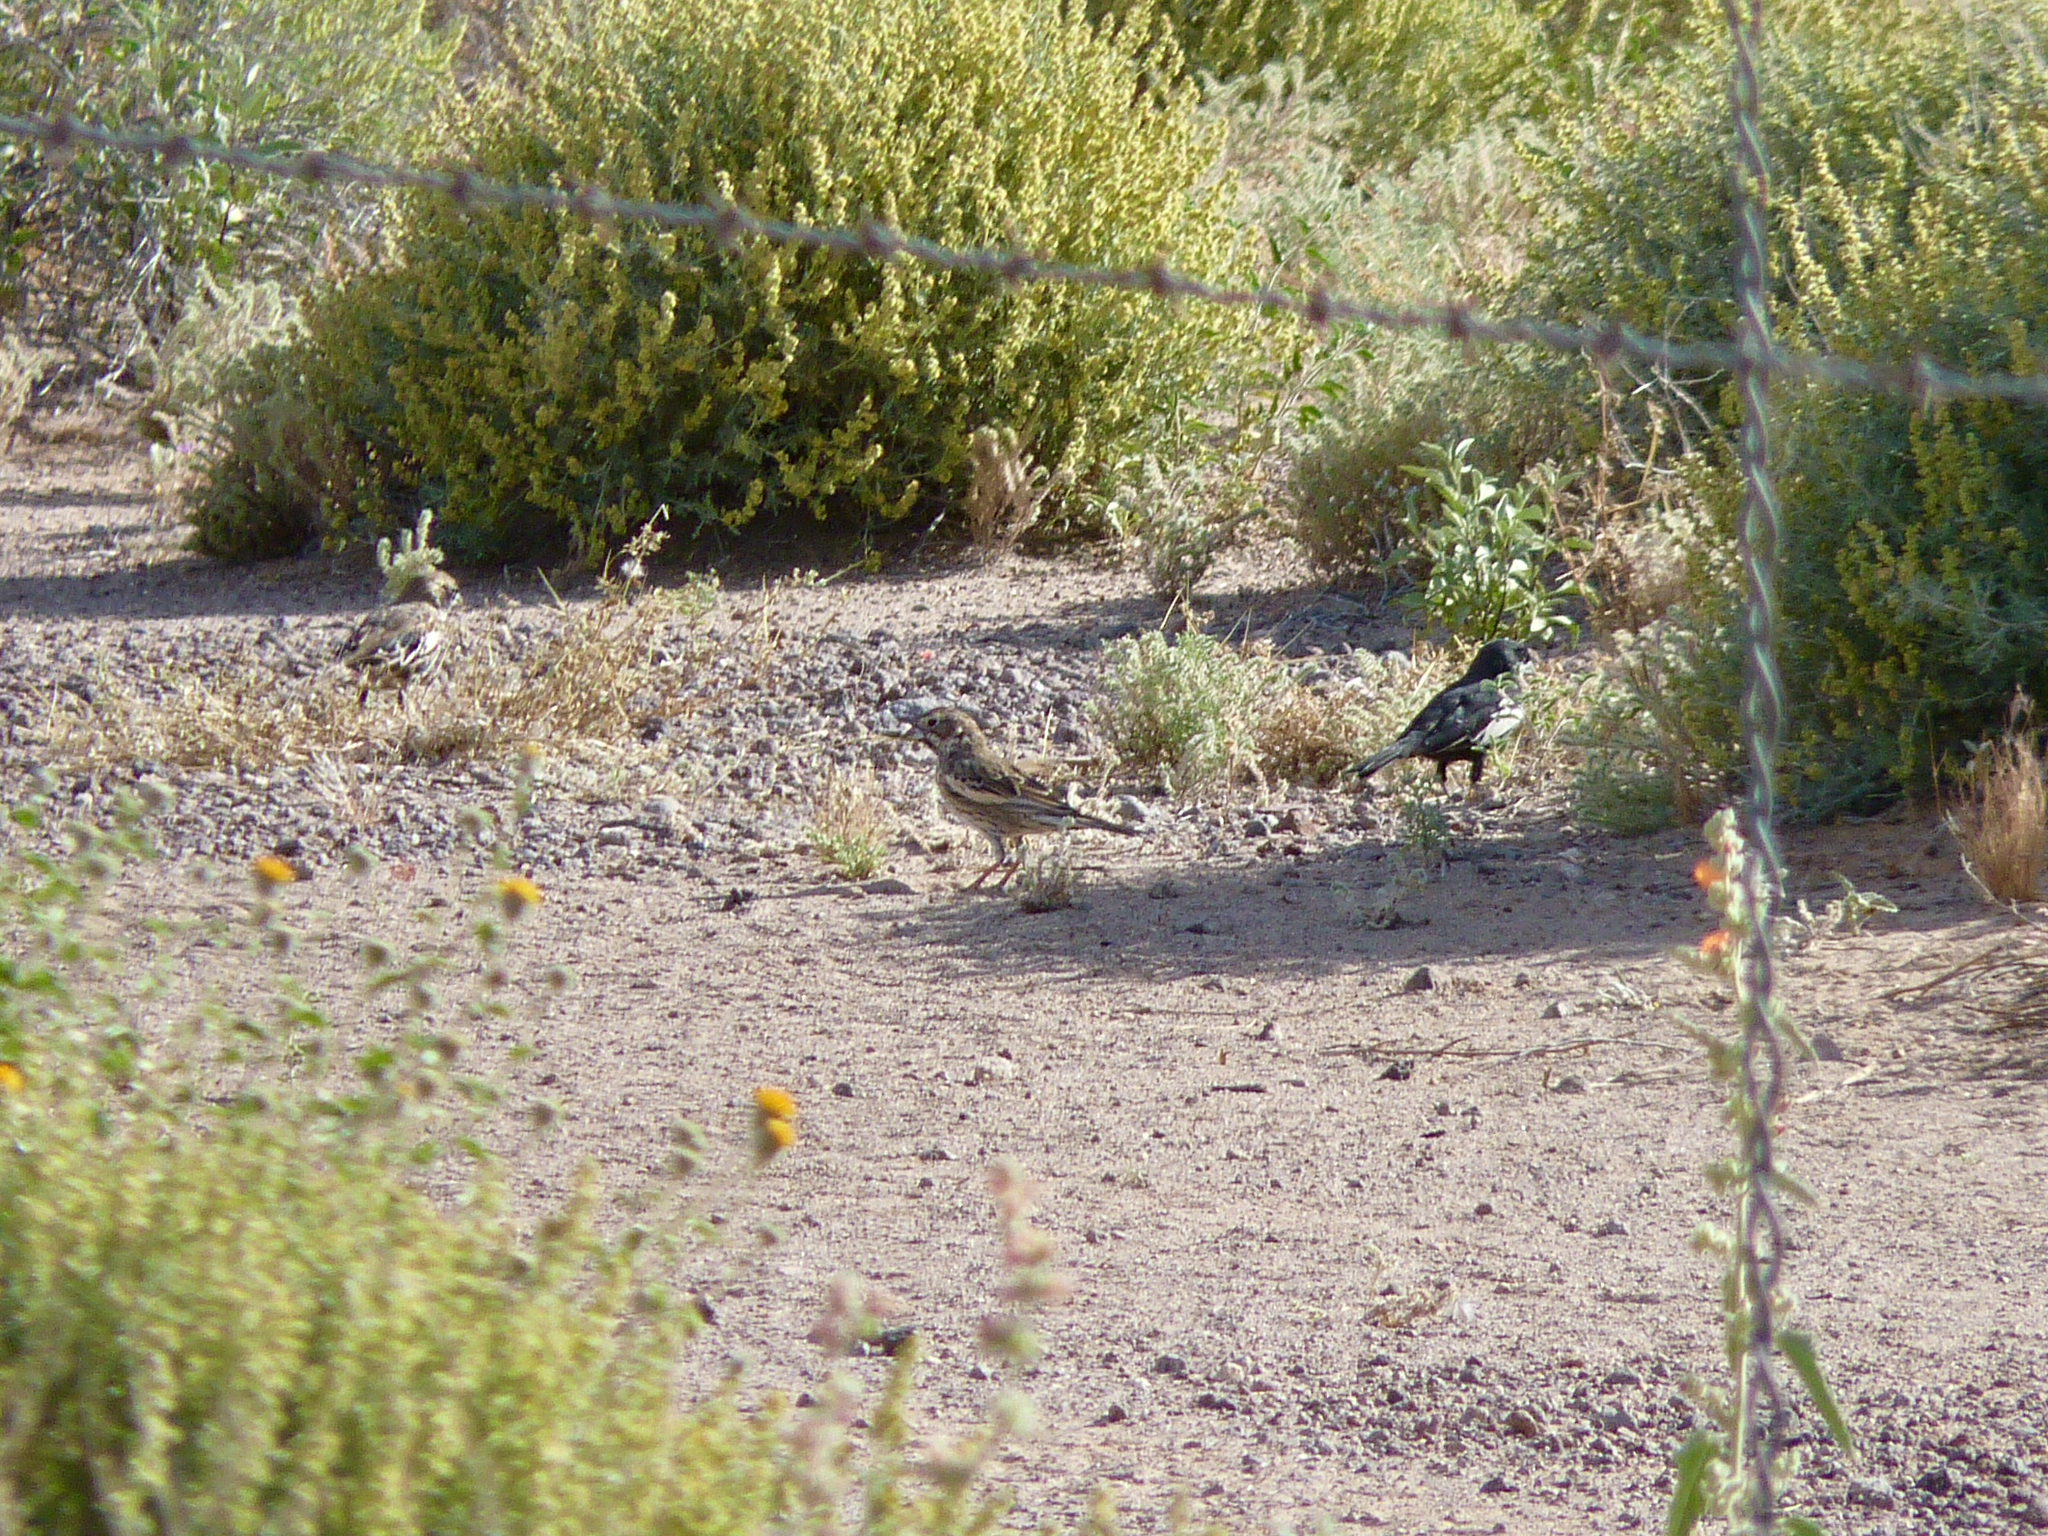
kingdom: Animalia
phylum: Chordata
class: Aves
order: Passeriformes
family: Passerellidae
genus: Calamospiza
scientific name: Calamospiza melanocorys
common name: Lark bunting
